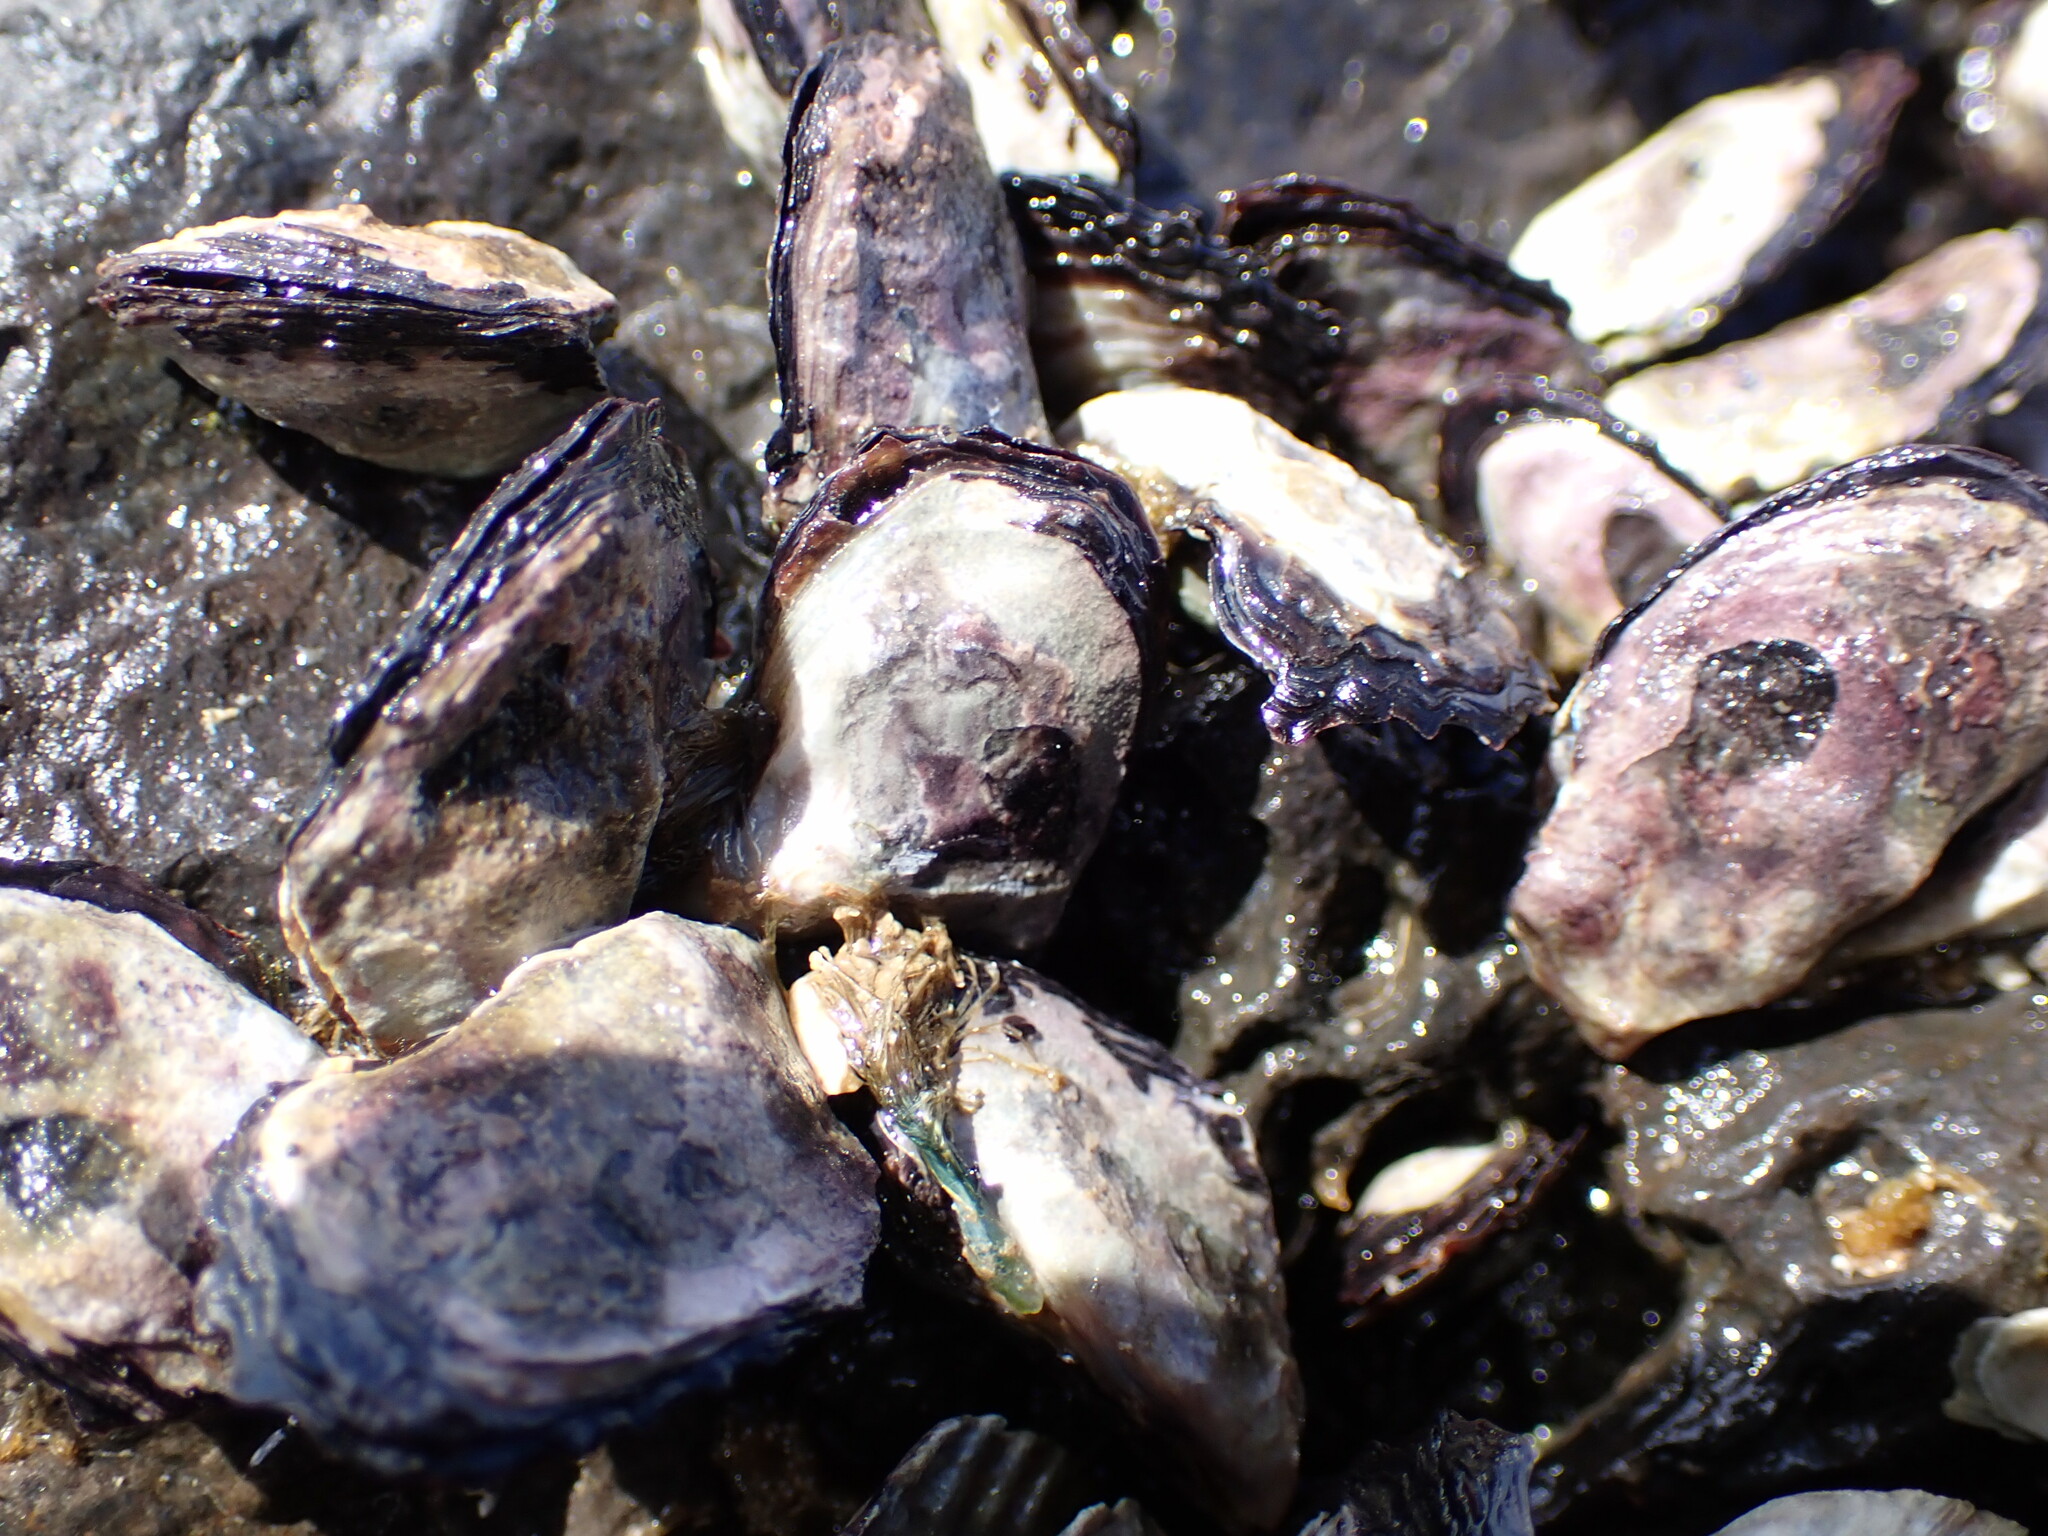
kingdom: Animalia
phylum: Mollusca
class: Bivalvia
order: Ostreida
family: Isognomonidae
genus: Isognomon
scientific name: Isognomon californicus
